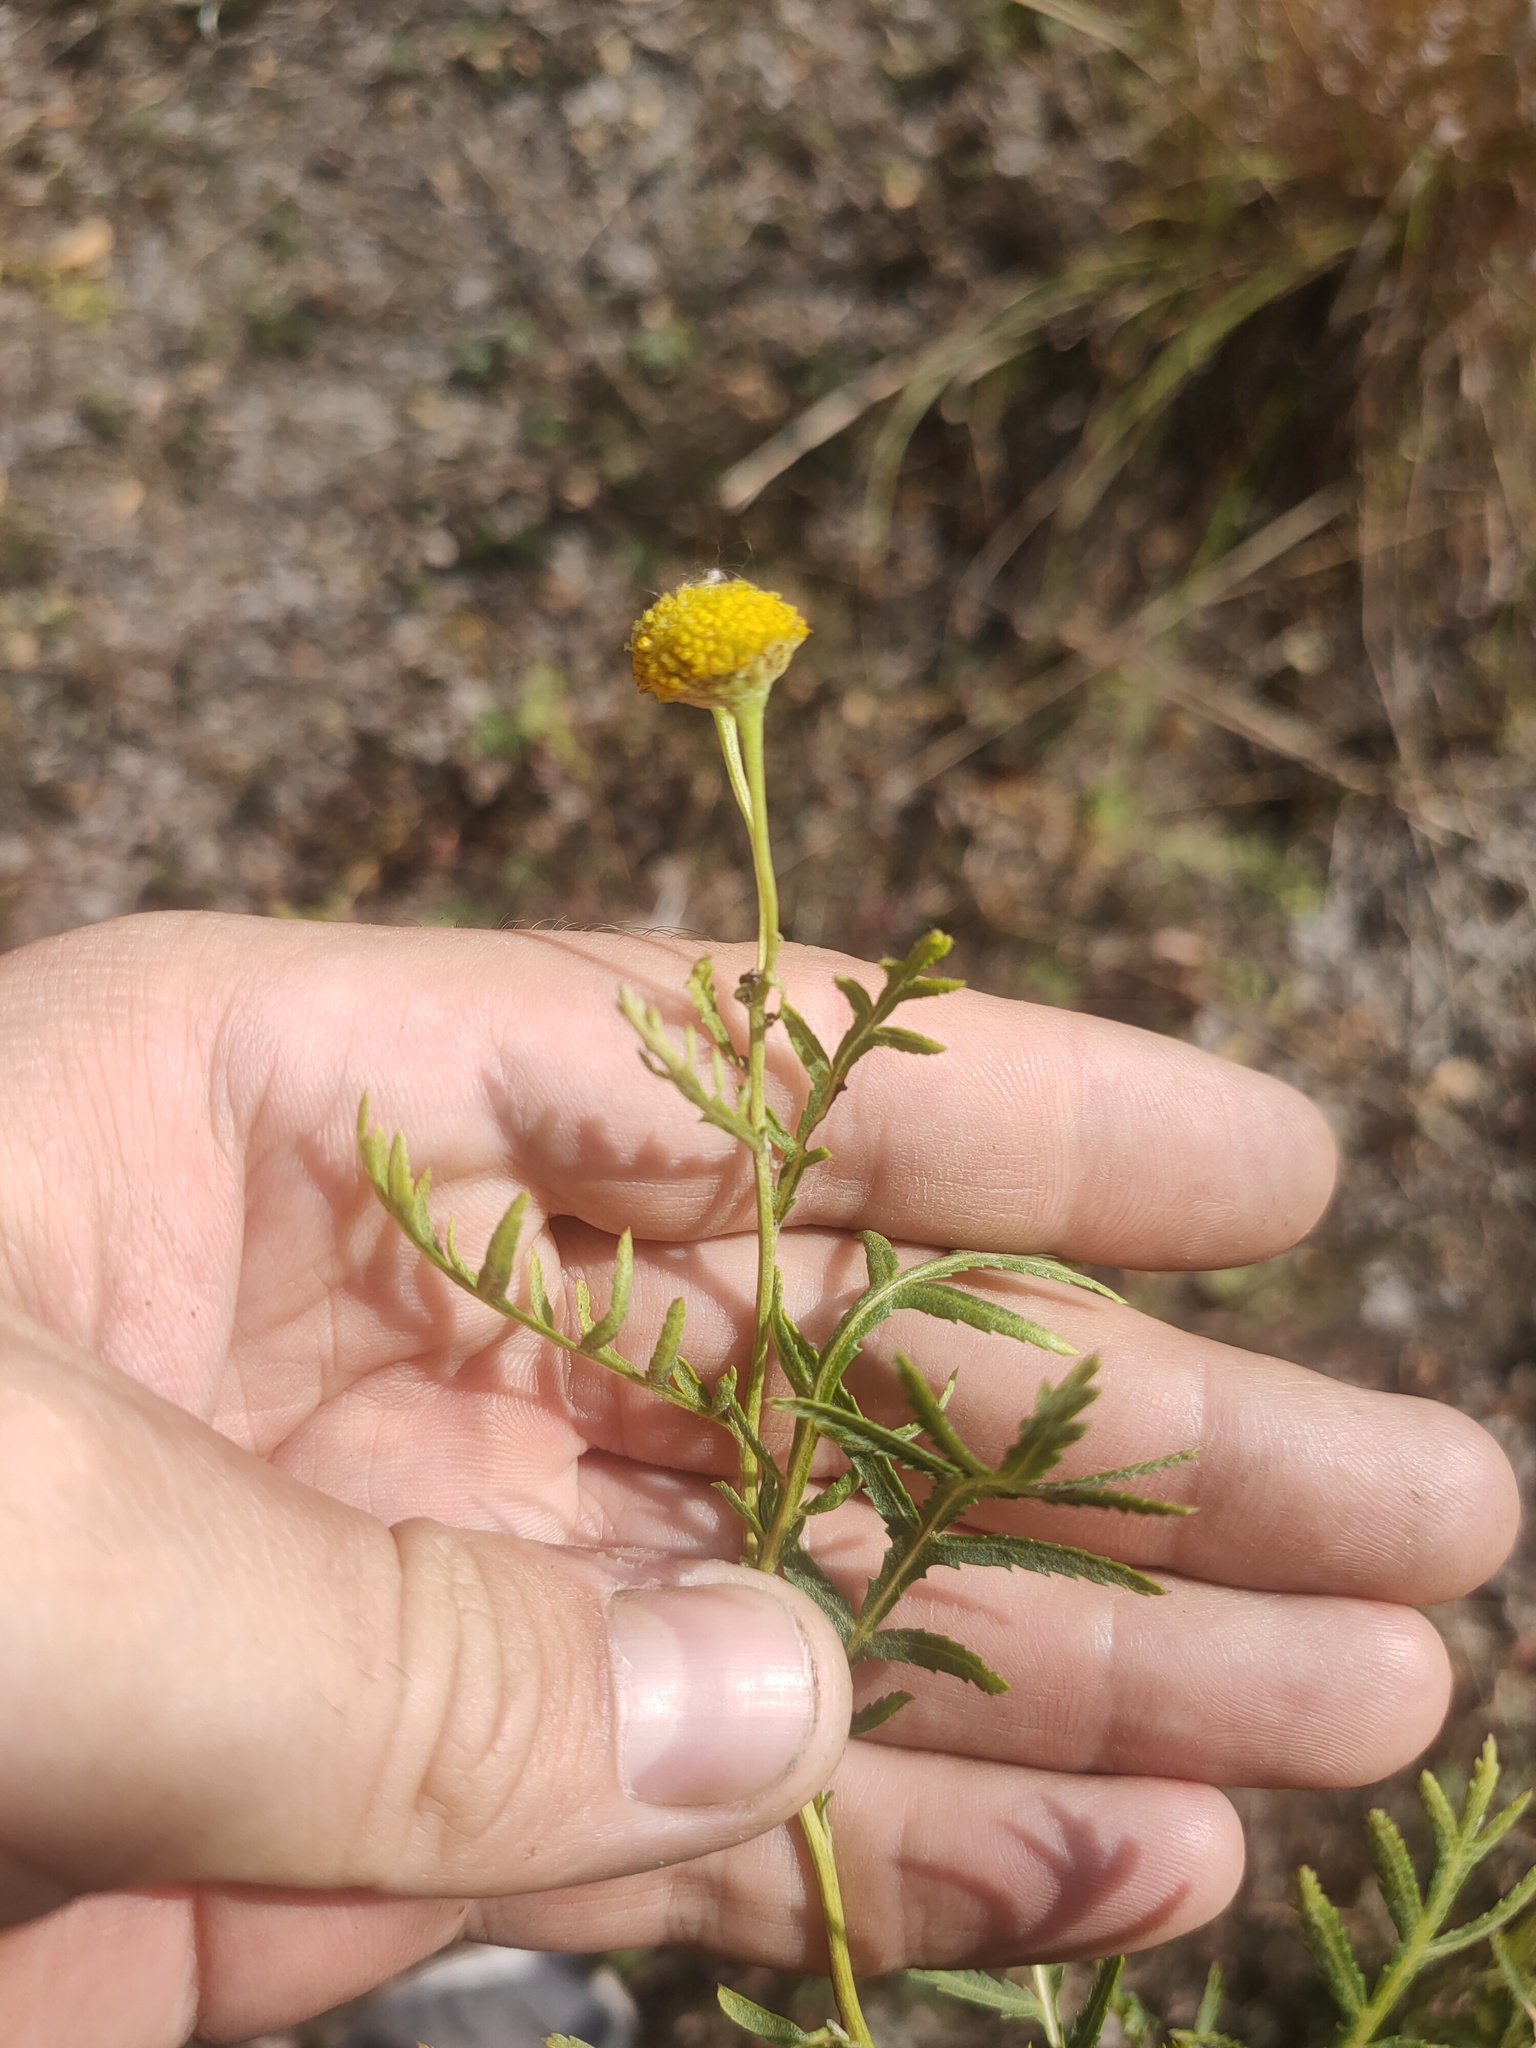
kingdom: Plantae
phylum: Tracheophyta
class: Magnoliopsida
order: Asterales
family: Asteraceae
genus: Tanacetum
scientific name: Tanacetum vulgare
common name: Common tansy
